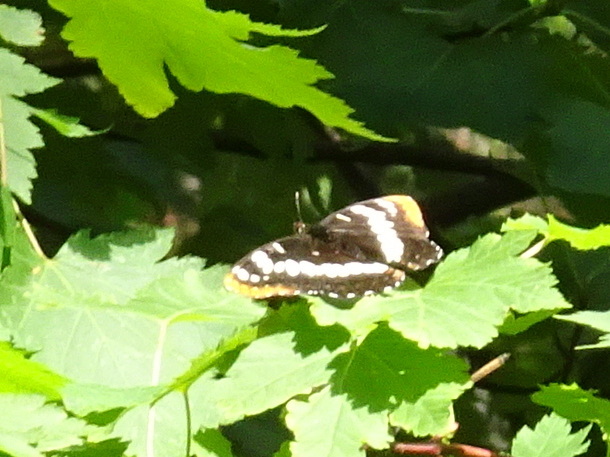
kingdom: Animalia
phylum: Arthropoda
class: Insecta
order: Lepidoptera
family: Nymphalidae
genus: Limenitis
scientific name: Limenitis lorquini
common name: Lorquin's admiral
